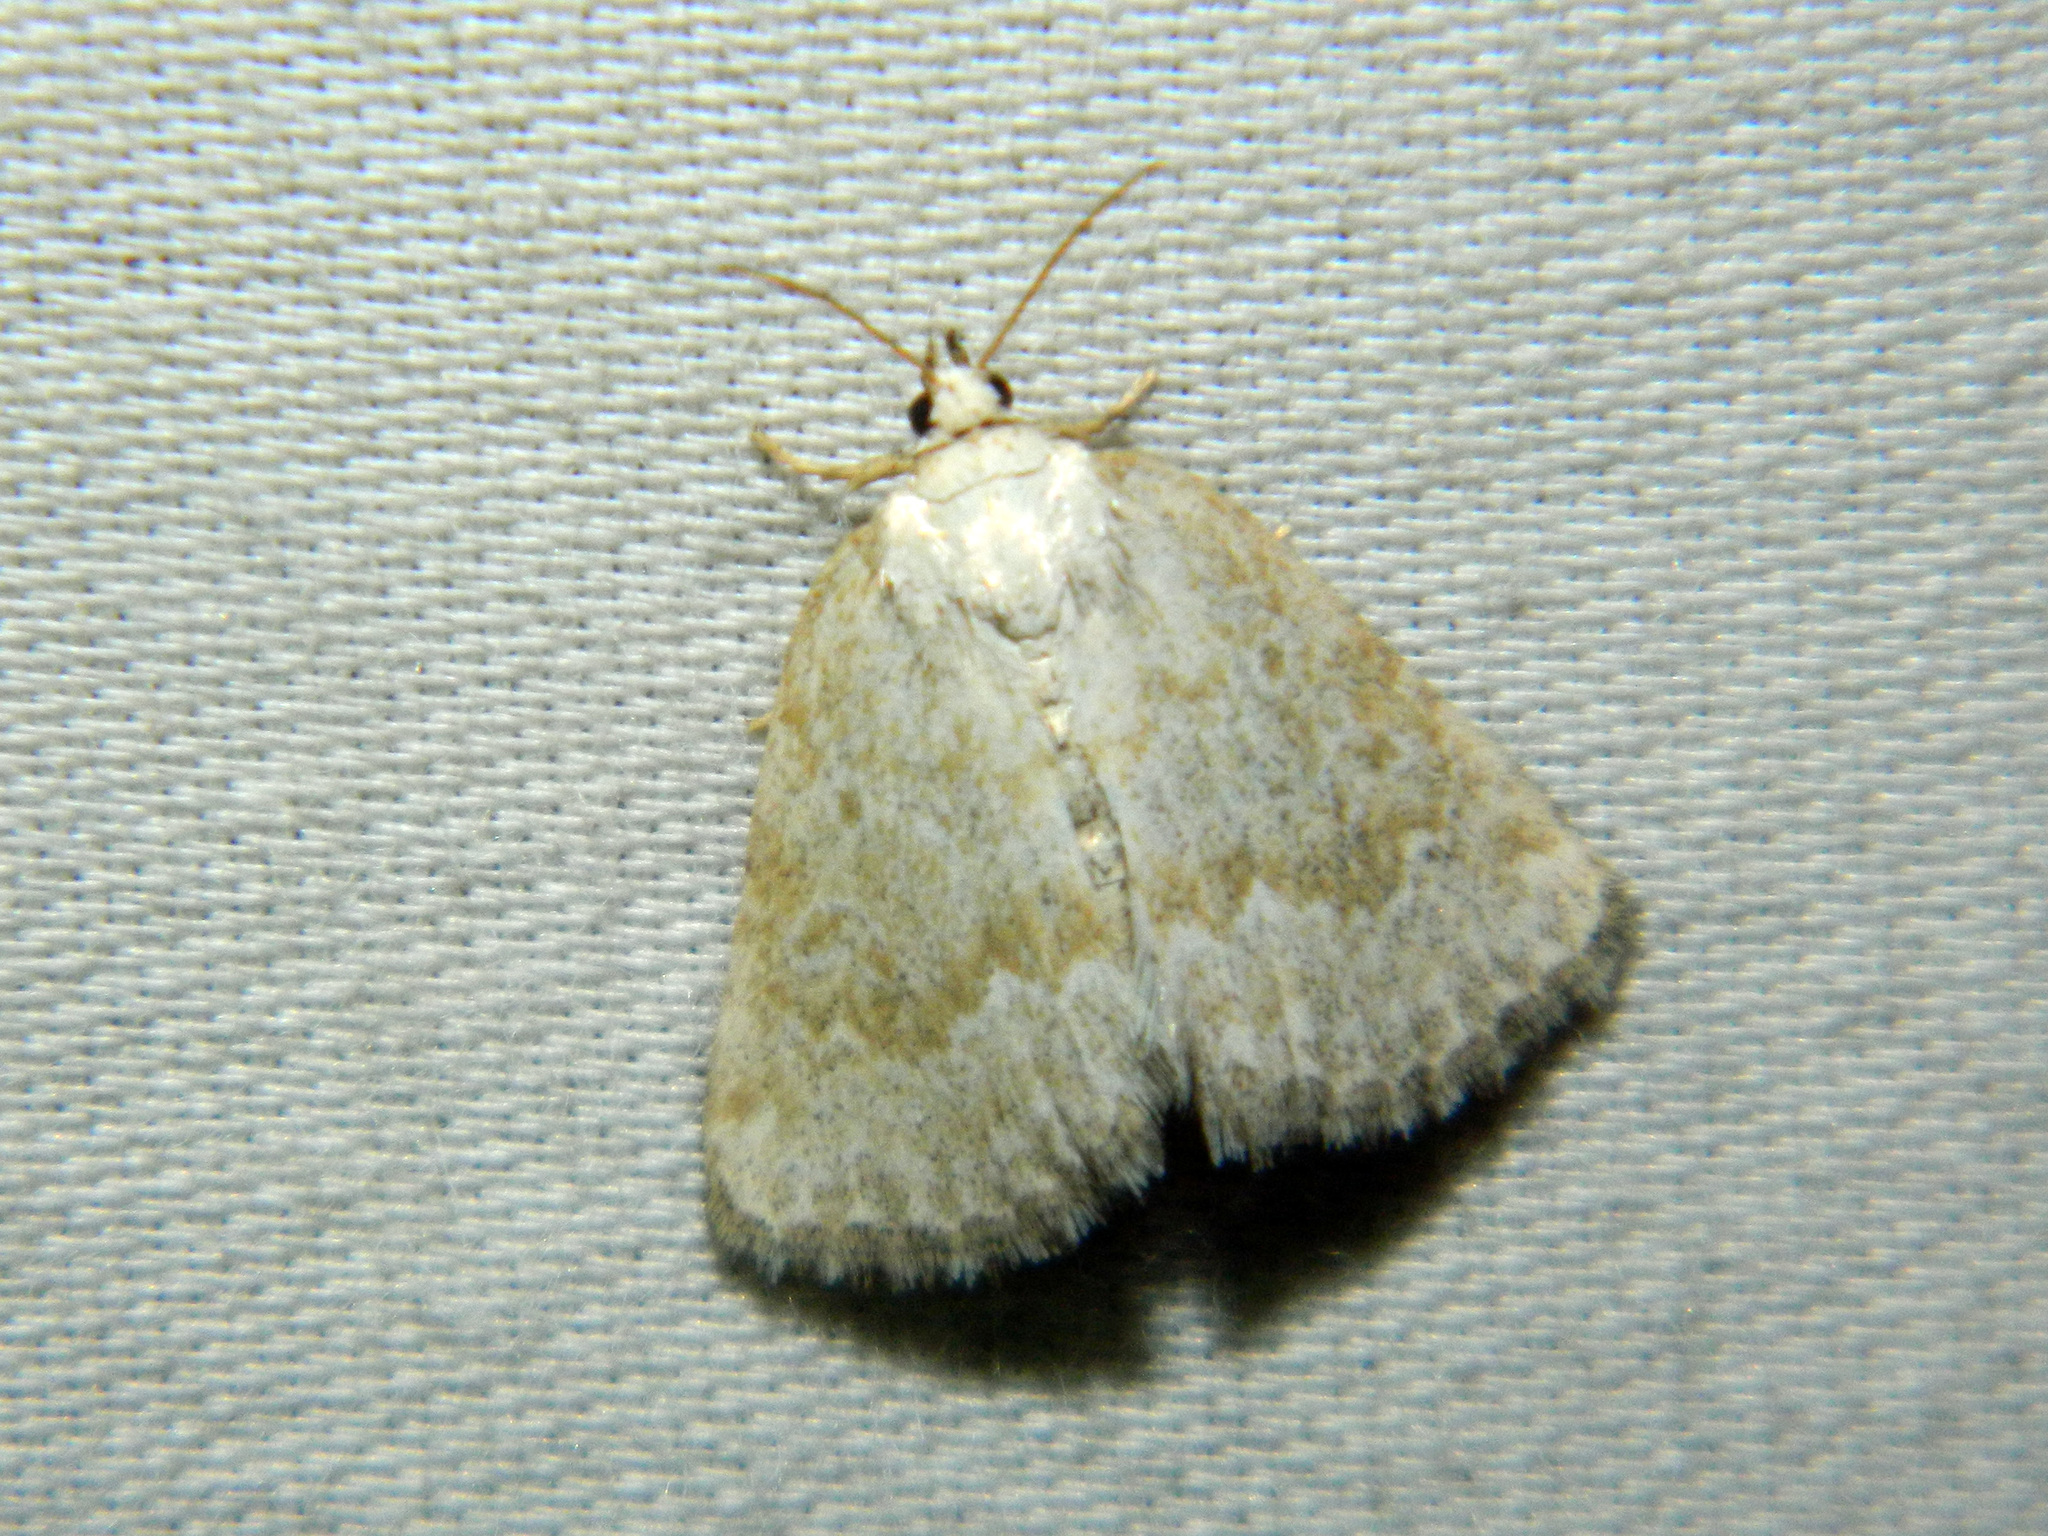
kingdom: Animalia
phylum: Arthropoda
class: Insecta
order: Lepidoptera
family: Noctuidae
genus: Protodeltote
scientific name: Protodeltote albidula
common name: Pale glyph
